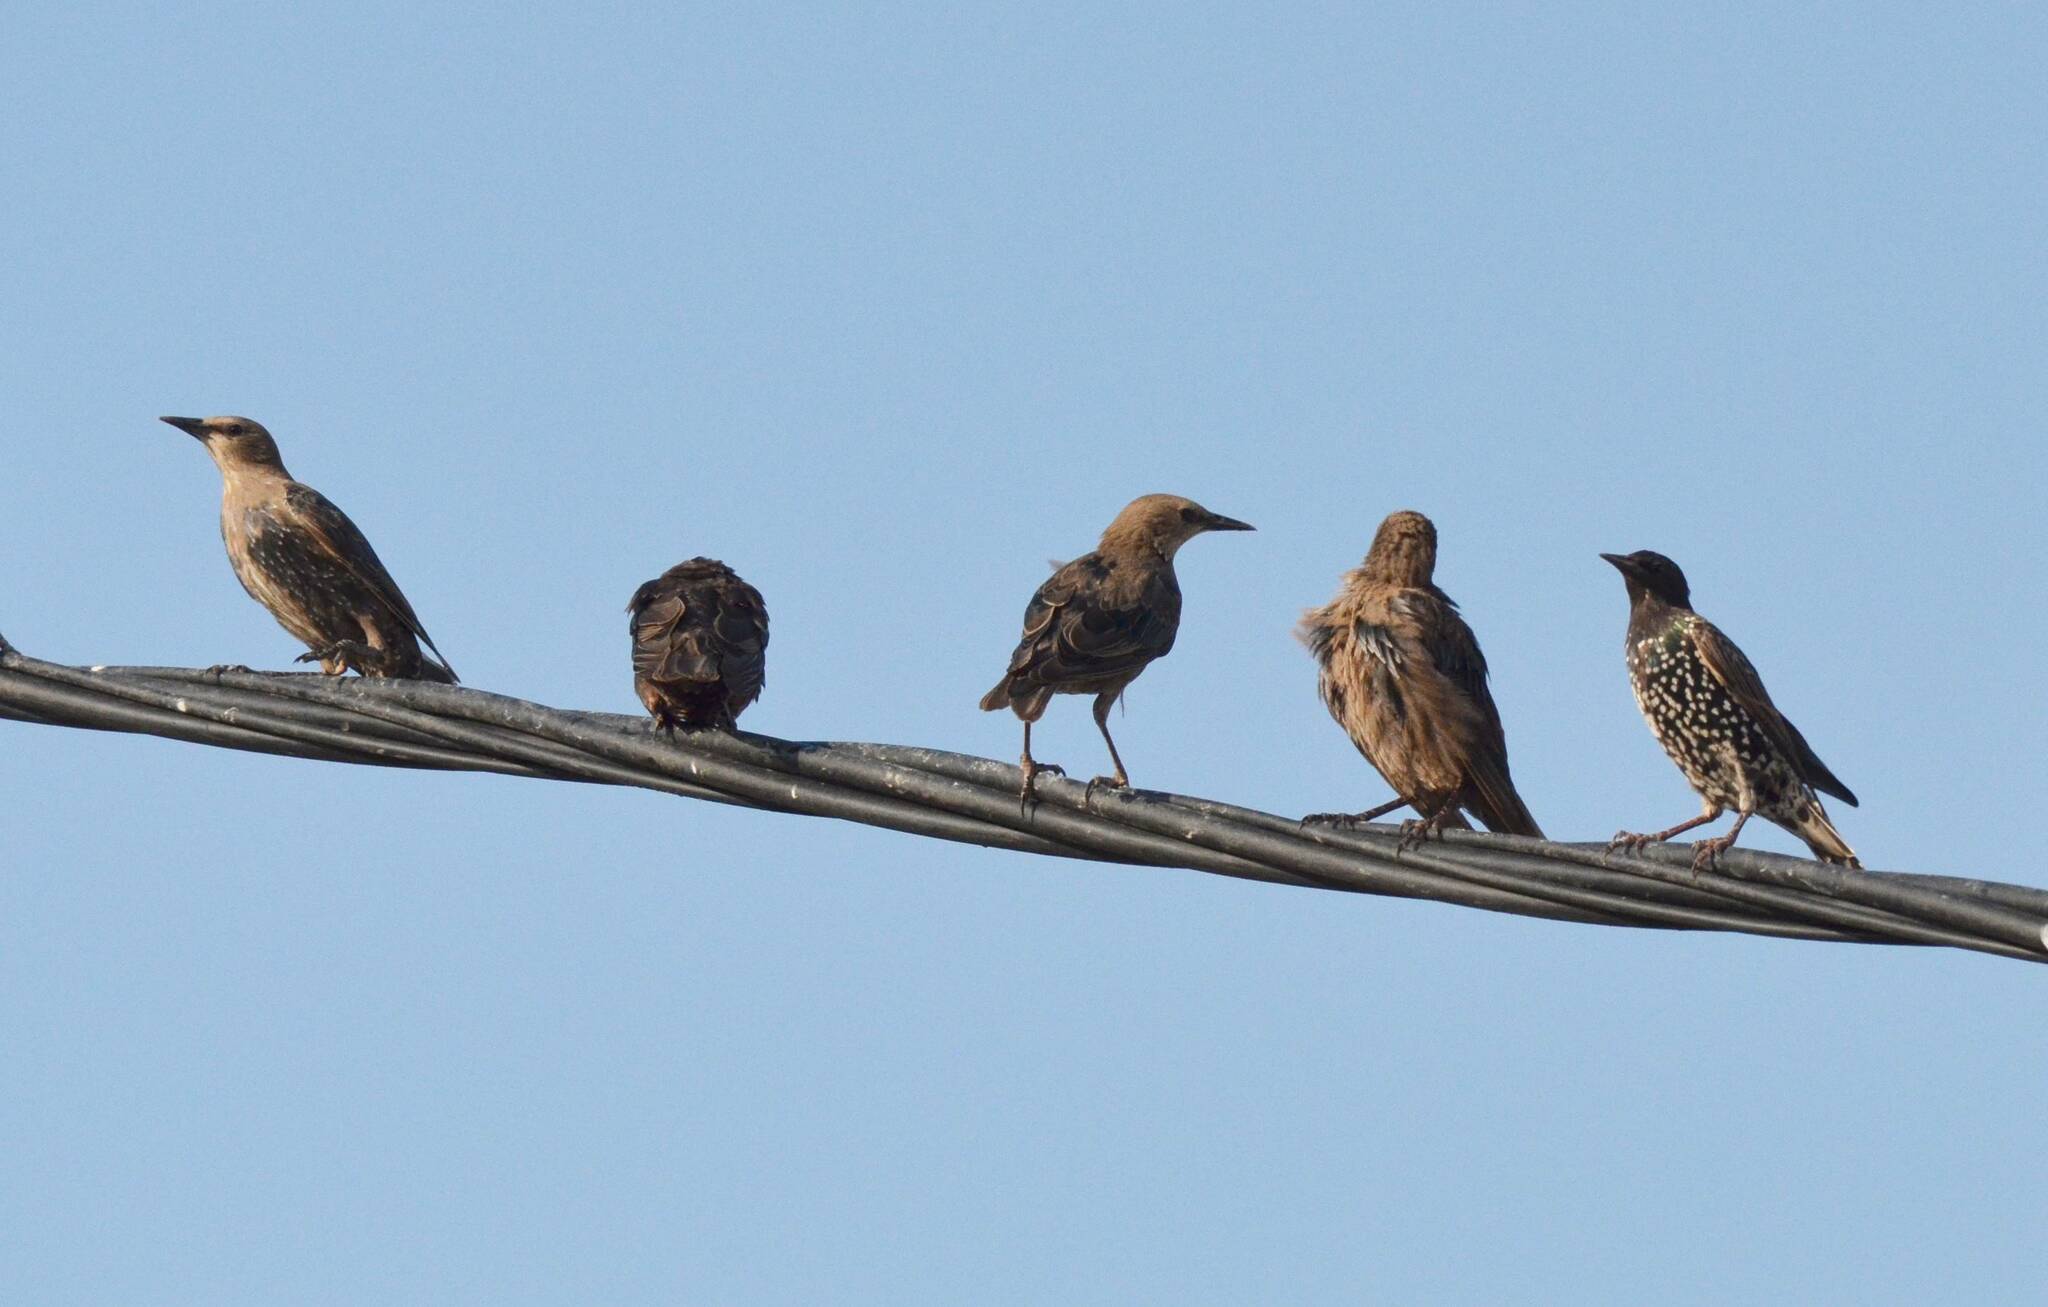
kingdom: Animalia
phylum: Chordata
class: Aves
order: Passeriformes
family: Sturnidae
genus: Sturnus
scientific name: Sturnus vulgaris
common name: Common starling
